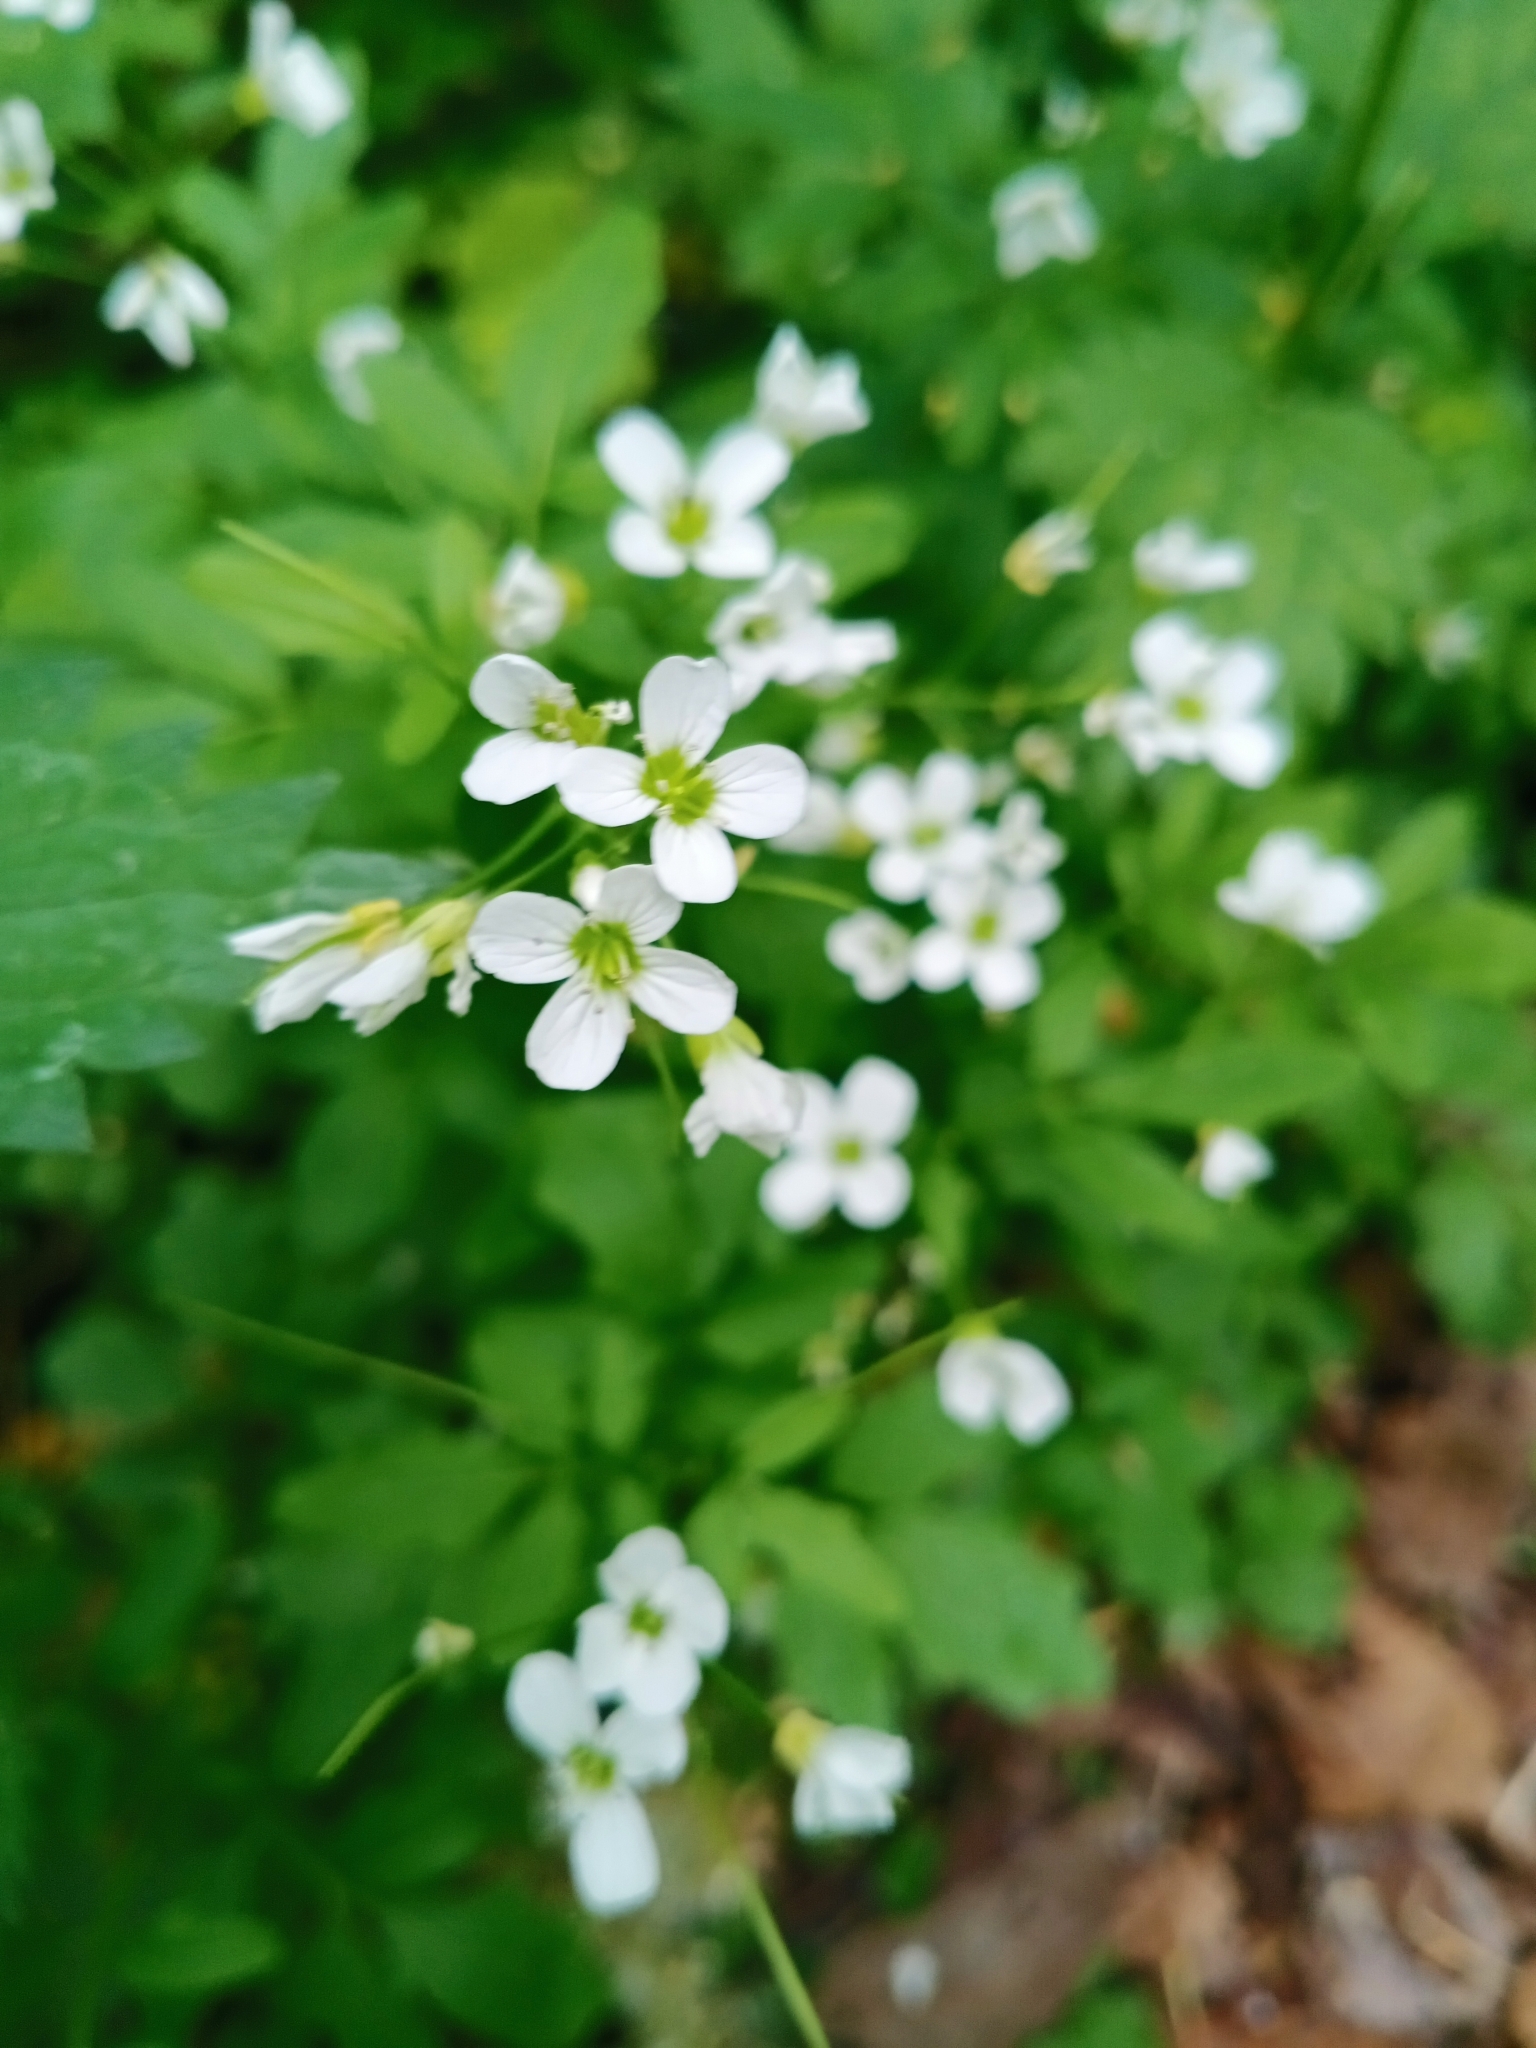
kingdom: Plantae
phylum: Tracheophyta
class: Magnoliopsida
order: Brassicales
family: Brassicaceae
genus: Cardamine
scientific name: Cardamine amara
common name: Large bitter-cress
